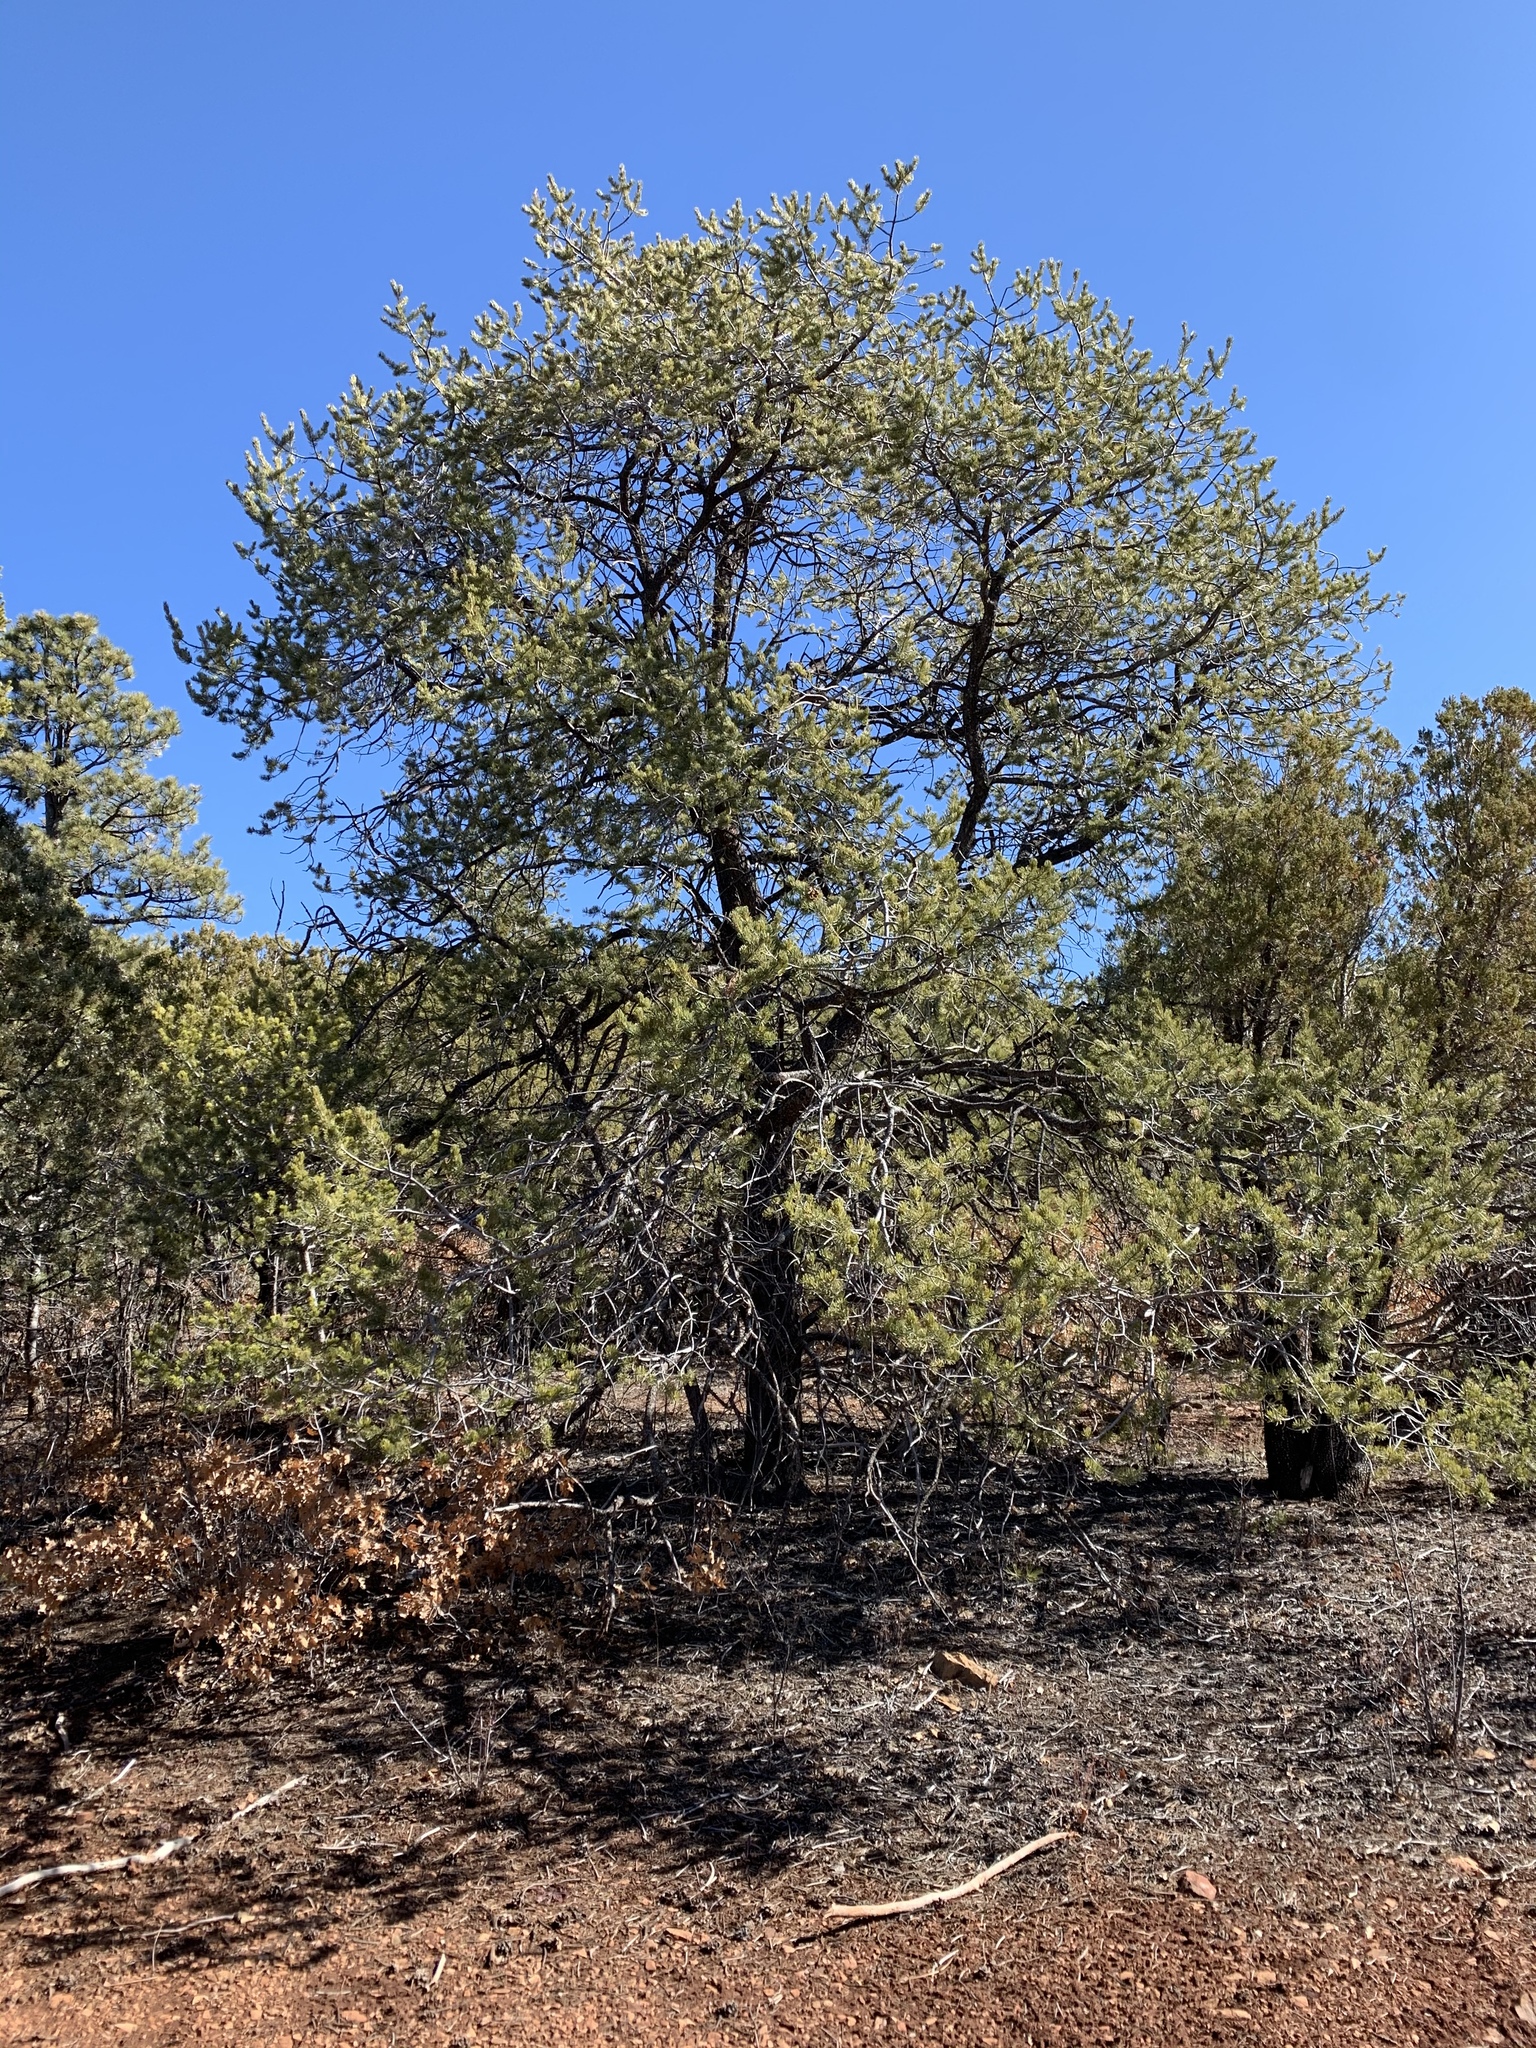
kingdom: Plantae
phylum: Tracheophyta
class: Pinopsida
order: Pinales
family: Pinaceae
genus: Pinus
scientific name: Pinus edulis
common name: Colorado pinyon
